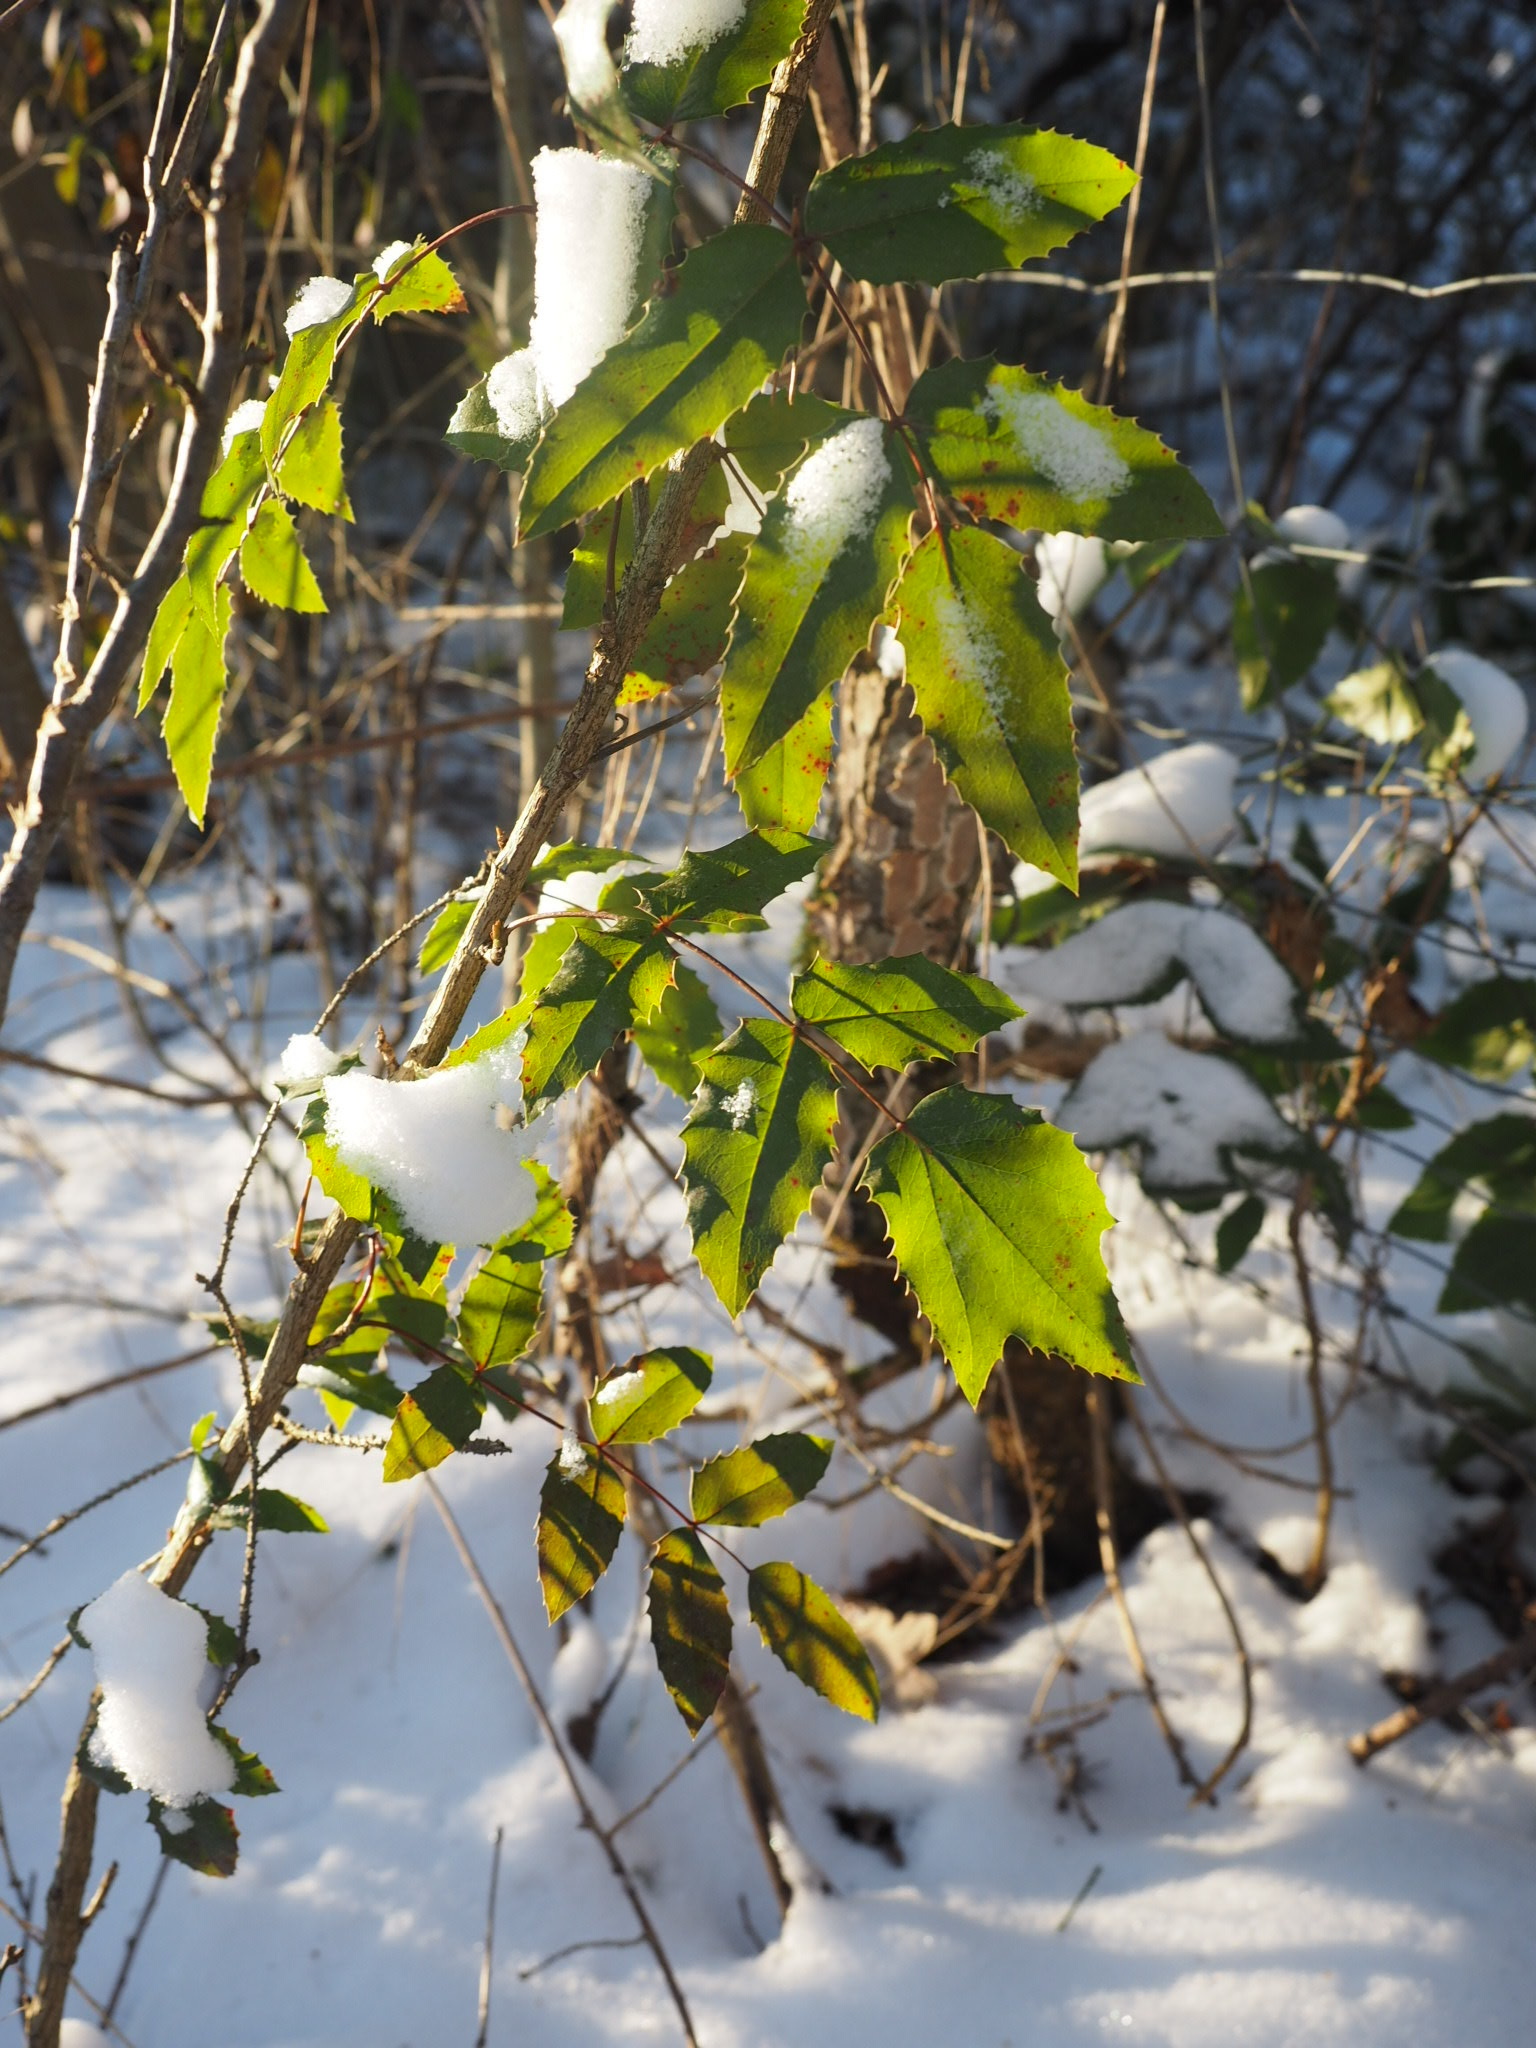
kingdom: Plantae
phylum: Tracheophyta
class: Magnoliopsida
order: Ranunculales
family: Berberidaceae
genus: Mahonia
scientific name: Mahonia aquifolium
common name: Oregon-grape
